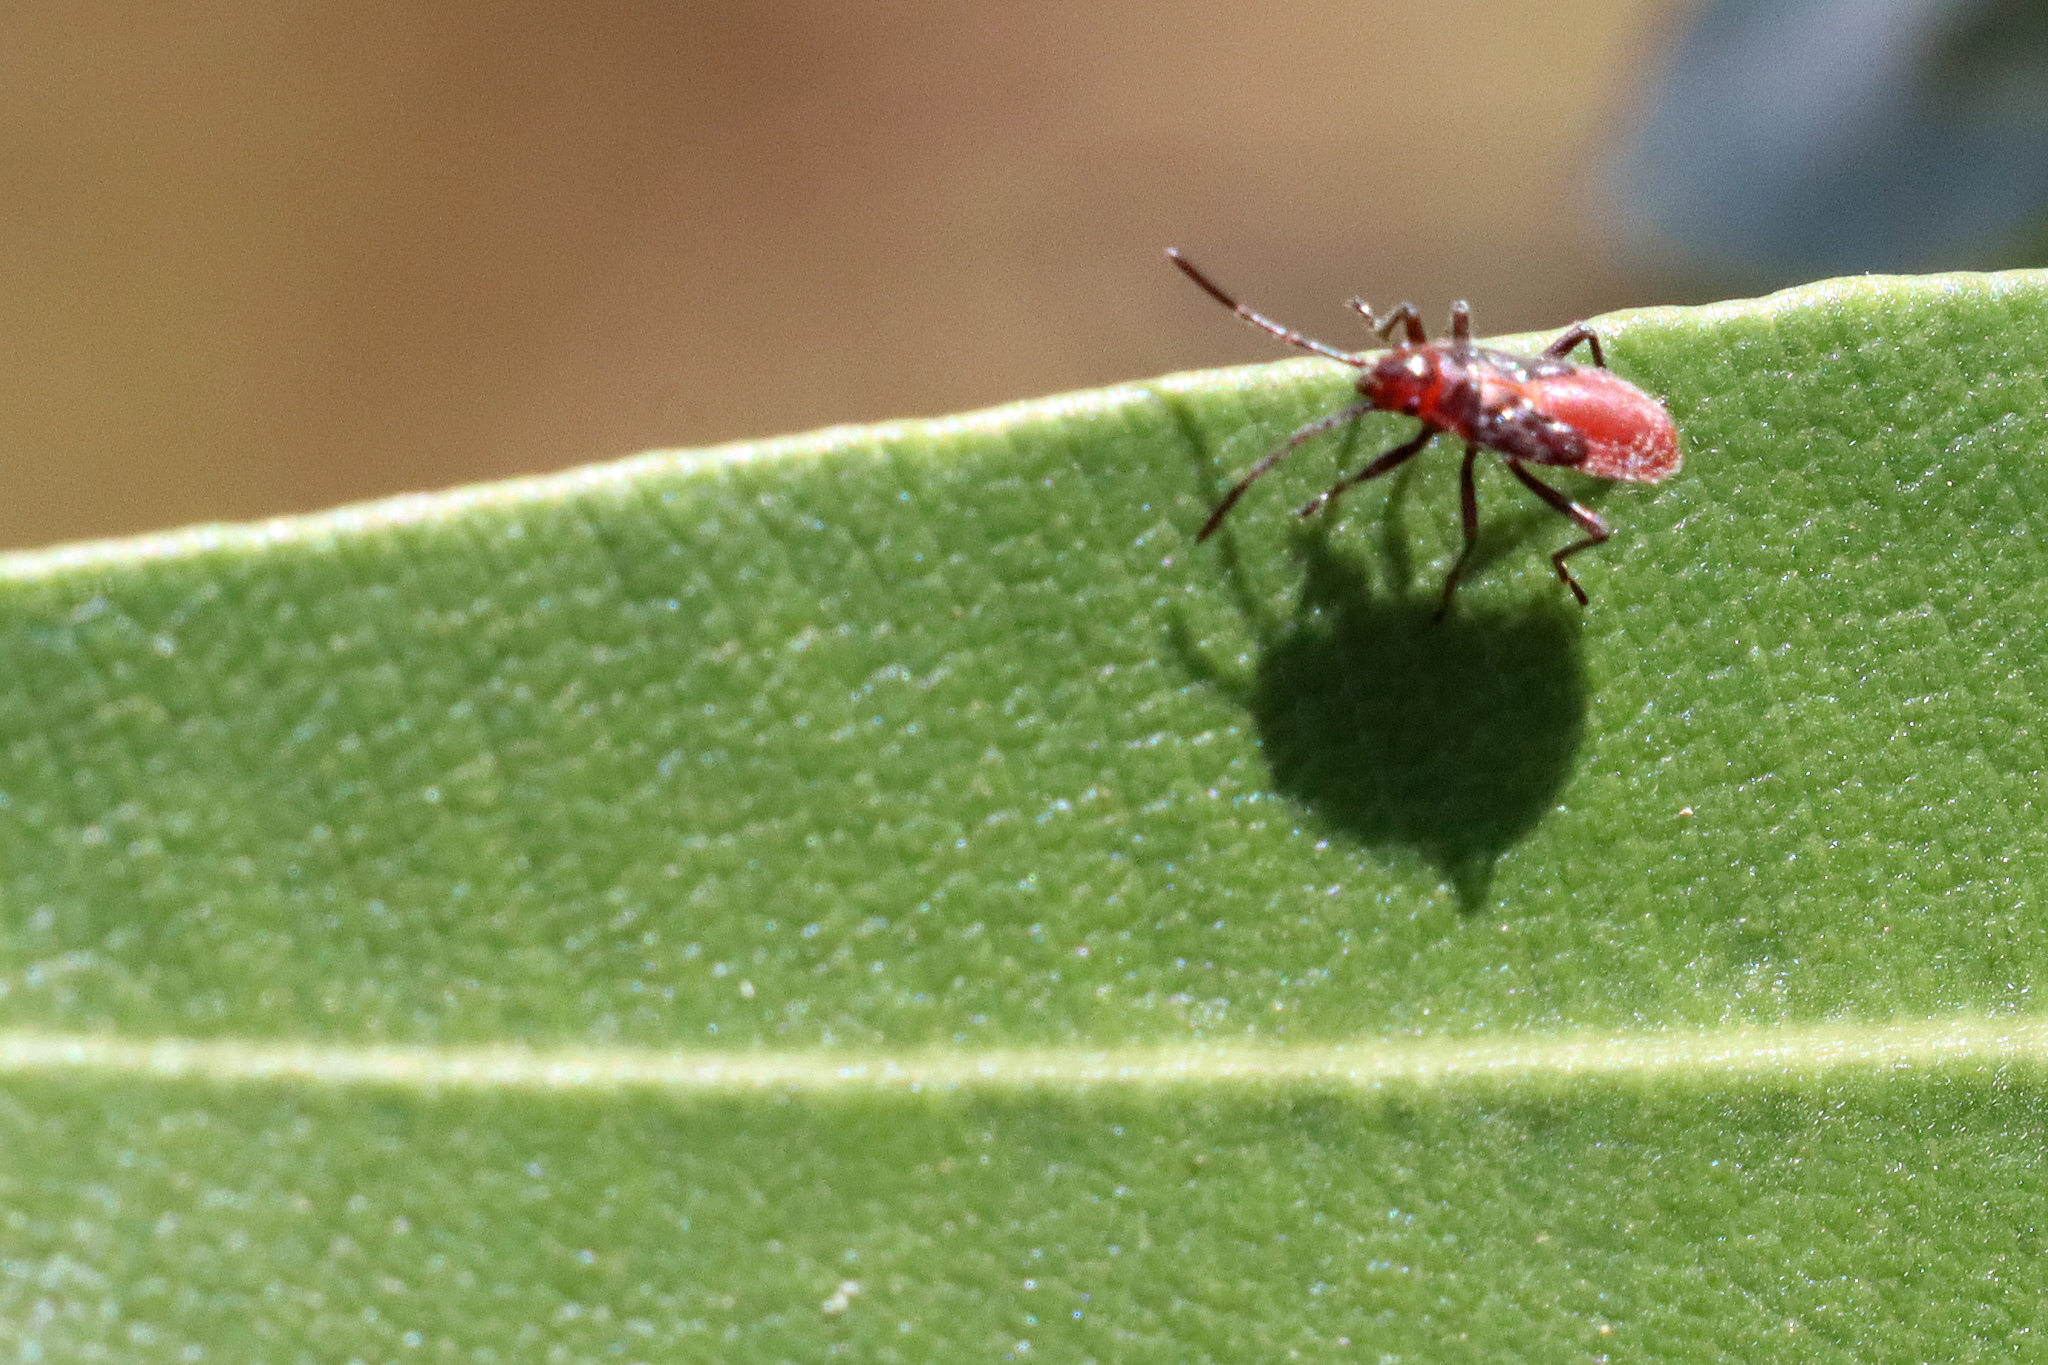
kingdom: Animalia
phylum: Arthropoda
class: Insecta
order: Hemiptera
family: Lygaeidae
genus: Caenocoris
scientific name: Caenocoris nerii
